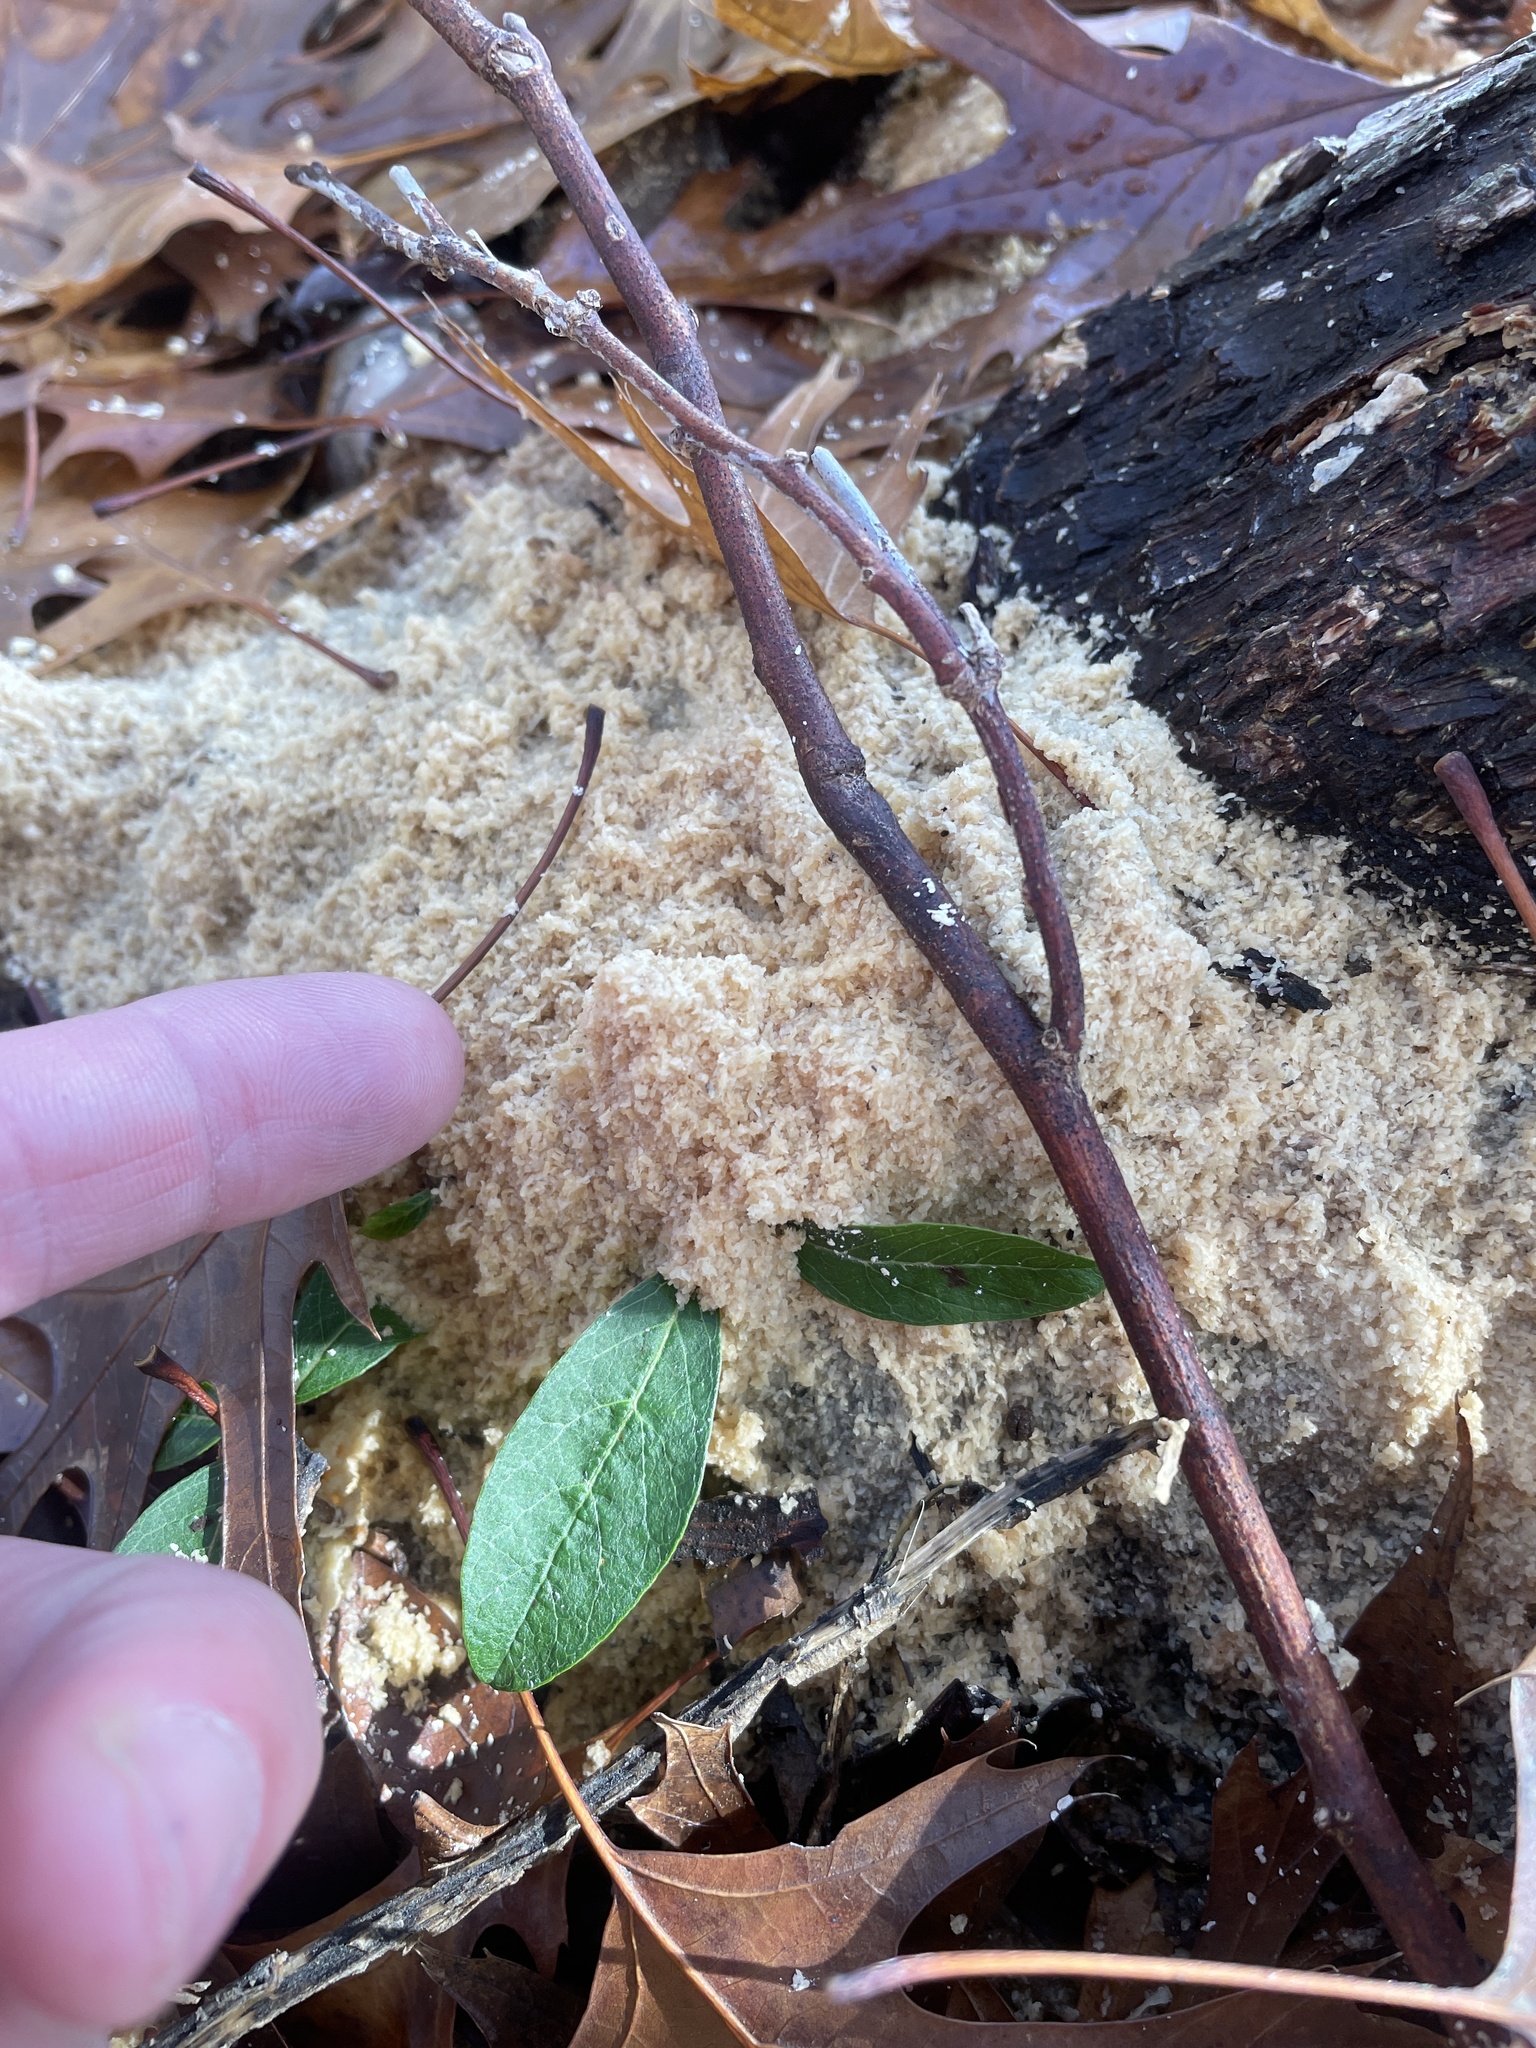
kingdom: Protozoa
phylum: Mycetozoa
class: Myxomycetes
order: Physarales
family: Physaraceae
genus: Fuligo
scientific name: Fuligo septica
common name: Dog vomit slime mold
